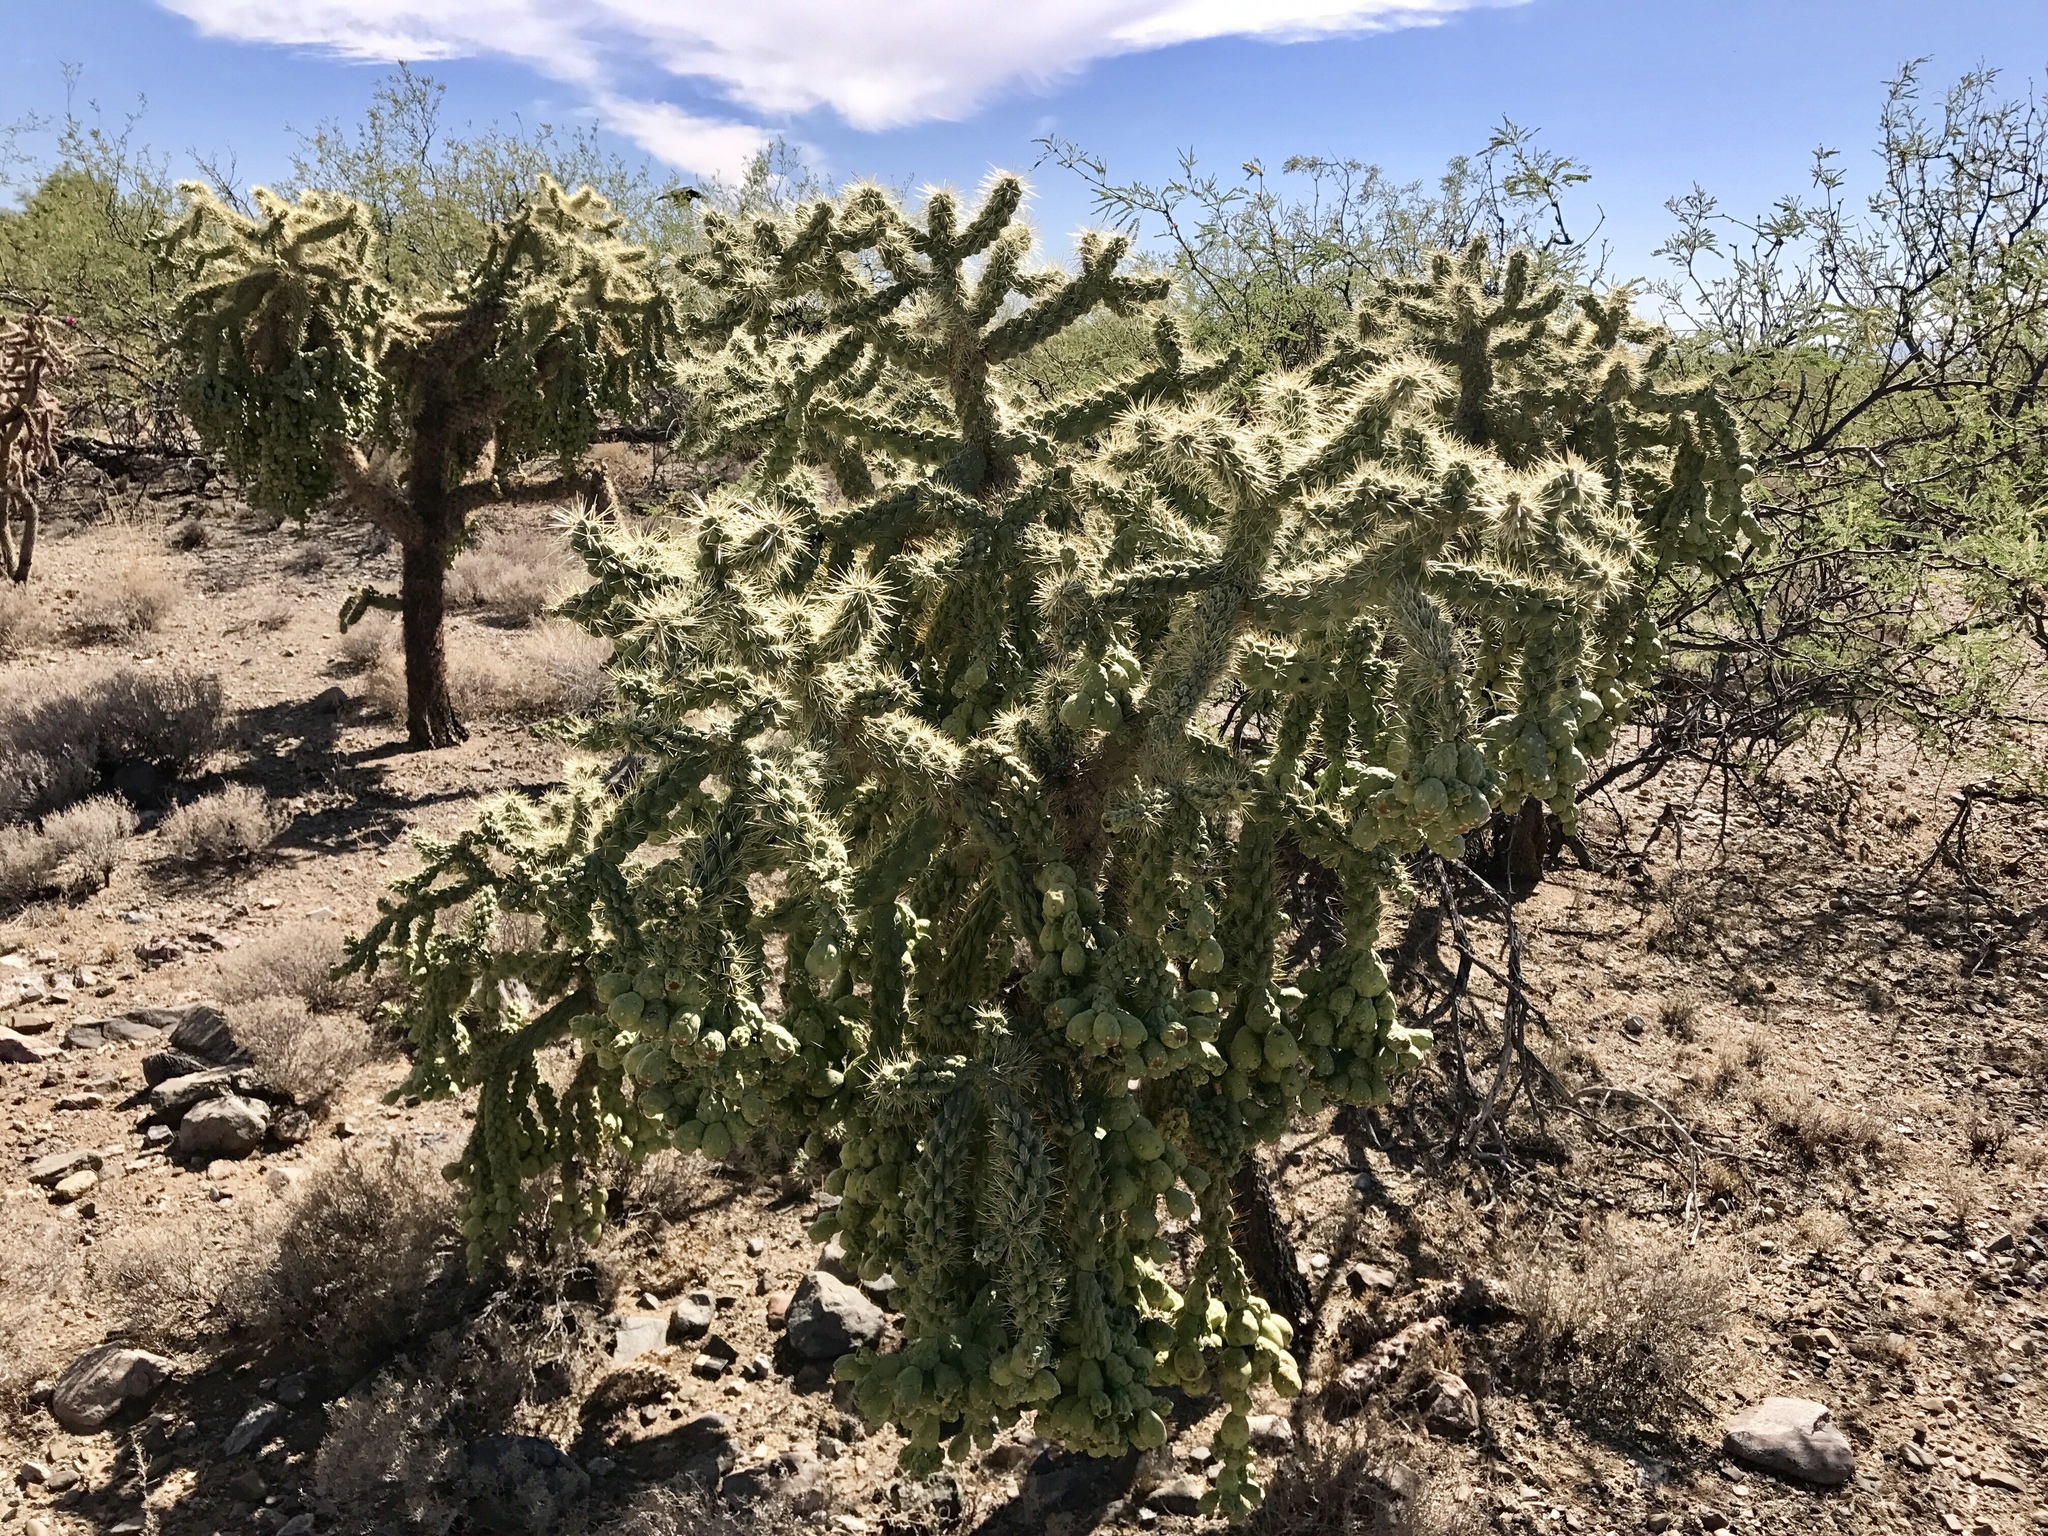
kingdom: Plantae
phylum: Tracheophyta
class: Magnoliopsida
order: Caryophyllales
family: Cactaceae
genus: Cylindropuntia
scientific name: Cylindropuntia fulgida
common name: Jumping cholla
